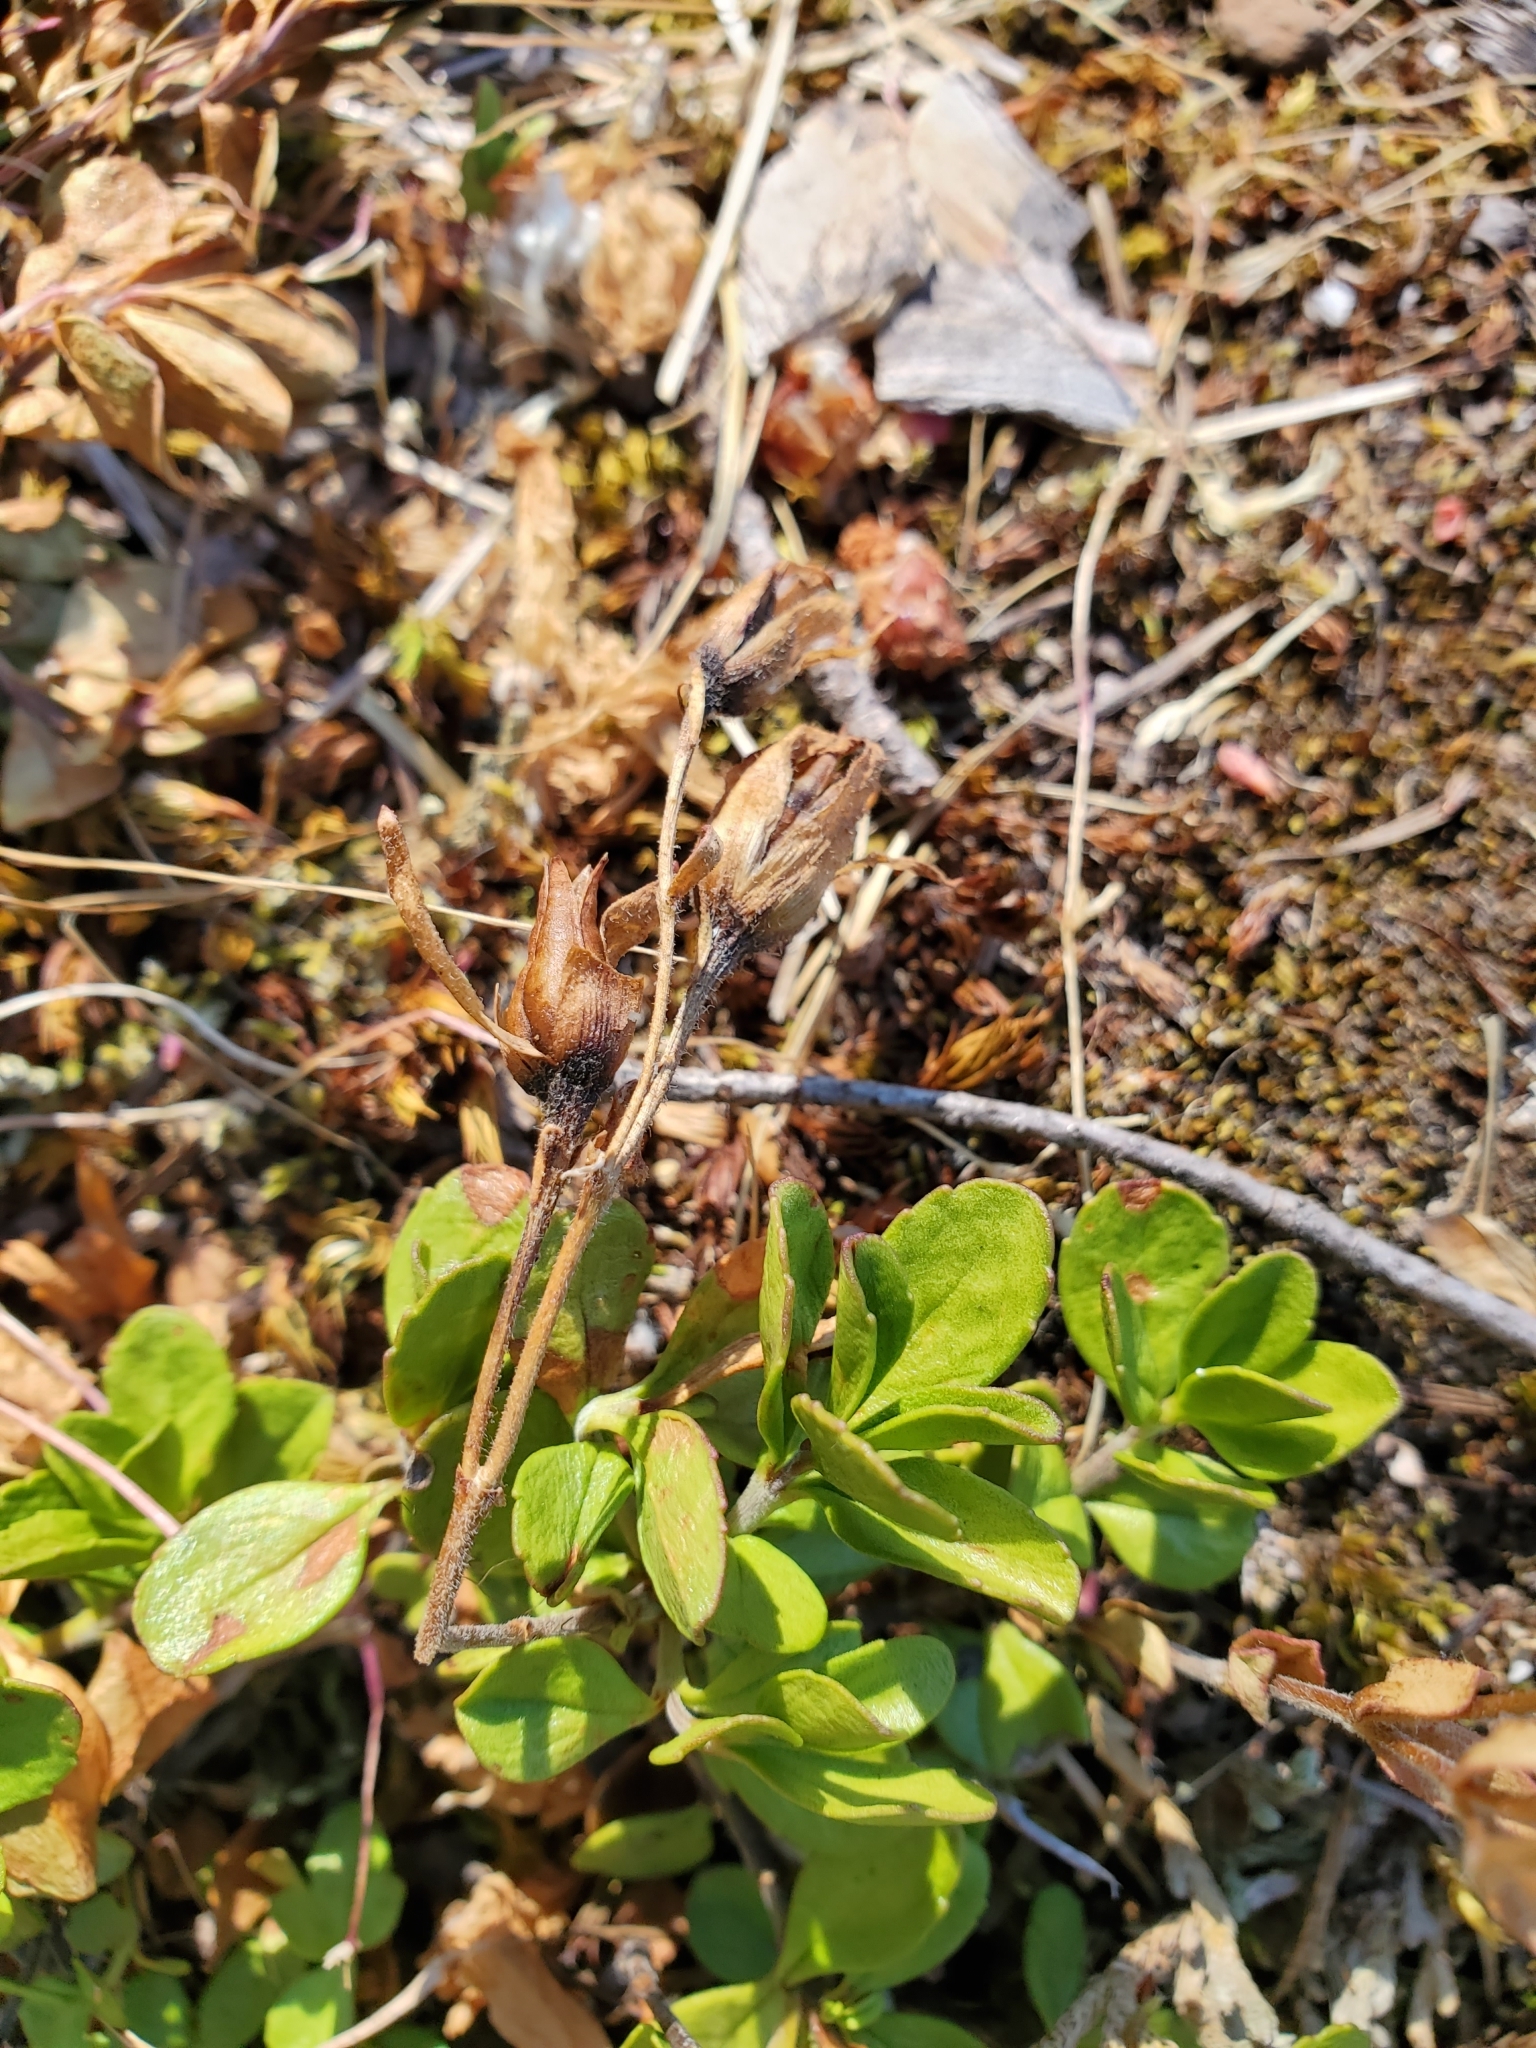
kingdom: Plantae
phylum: Tracheophyta
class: Magnoliopsida
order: Lamiales
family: Plantaginaceae
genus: Penstemon
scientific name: Penstemon davidsonii
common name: Davidson's penstemon
